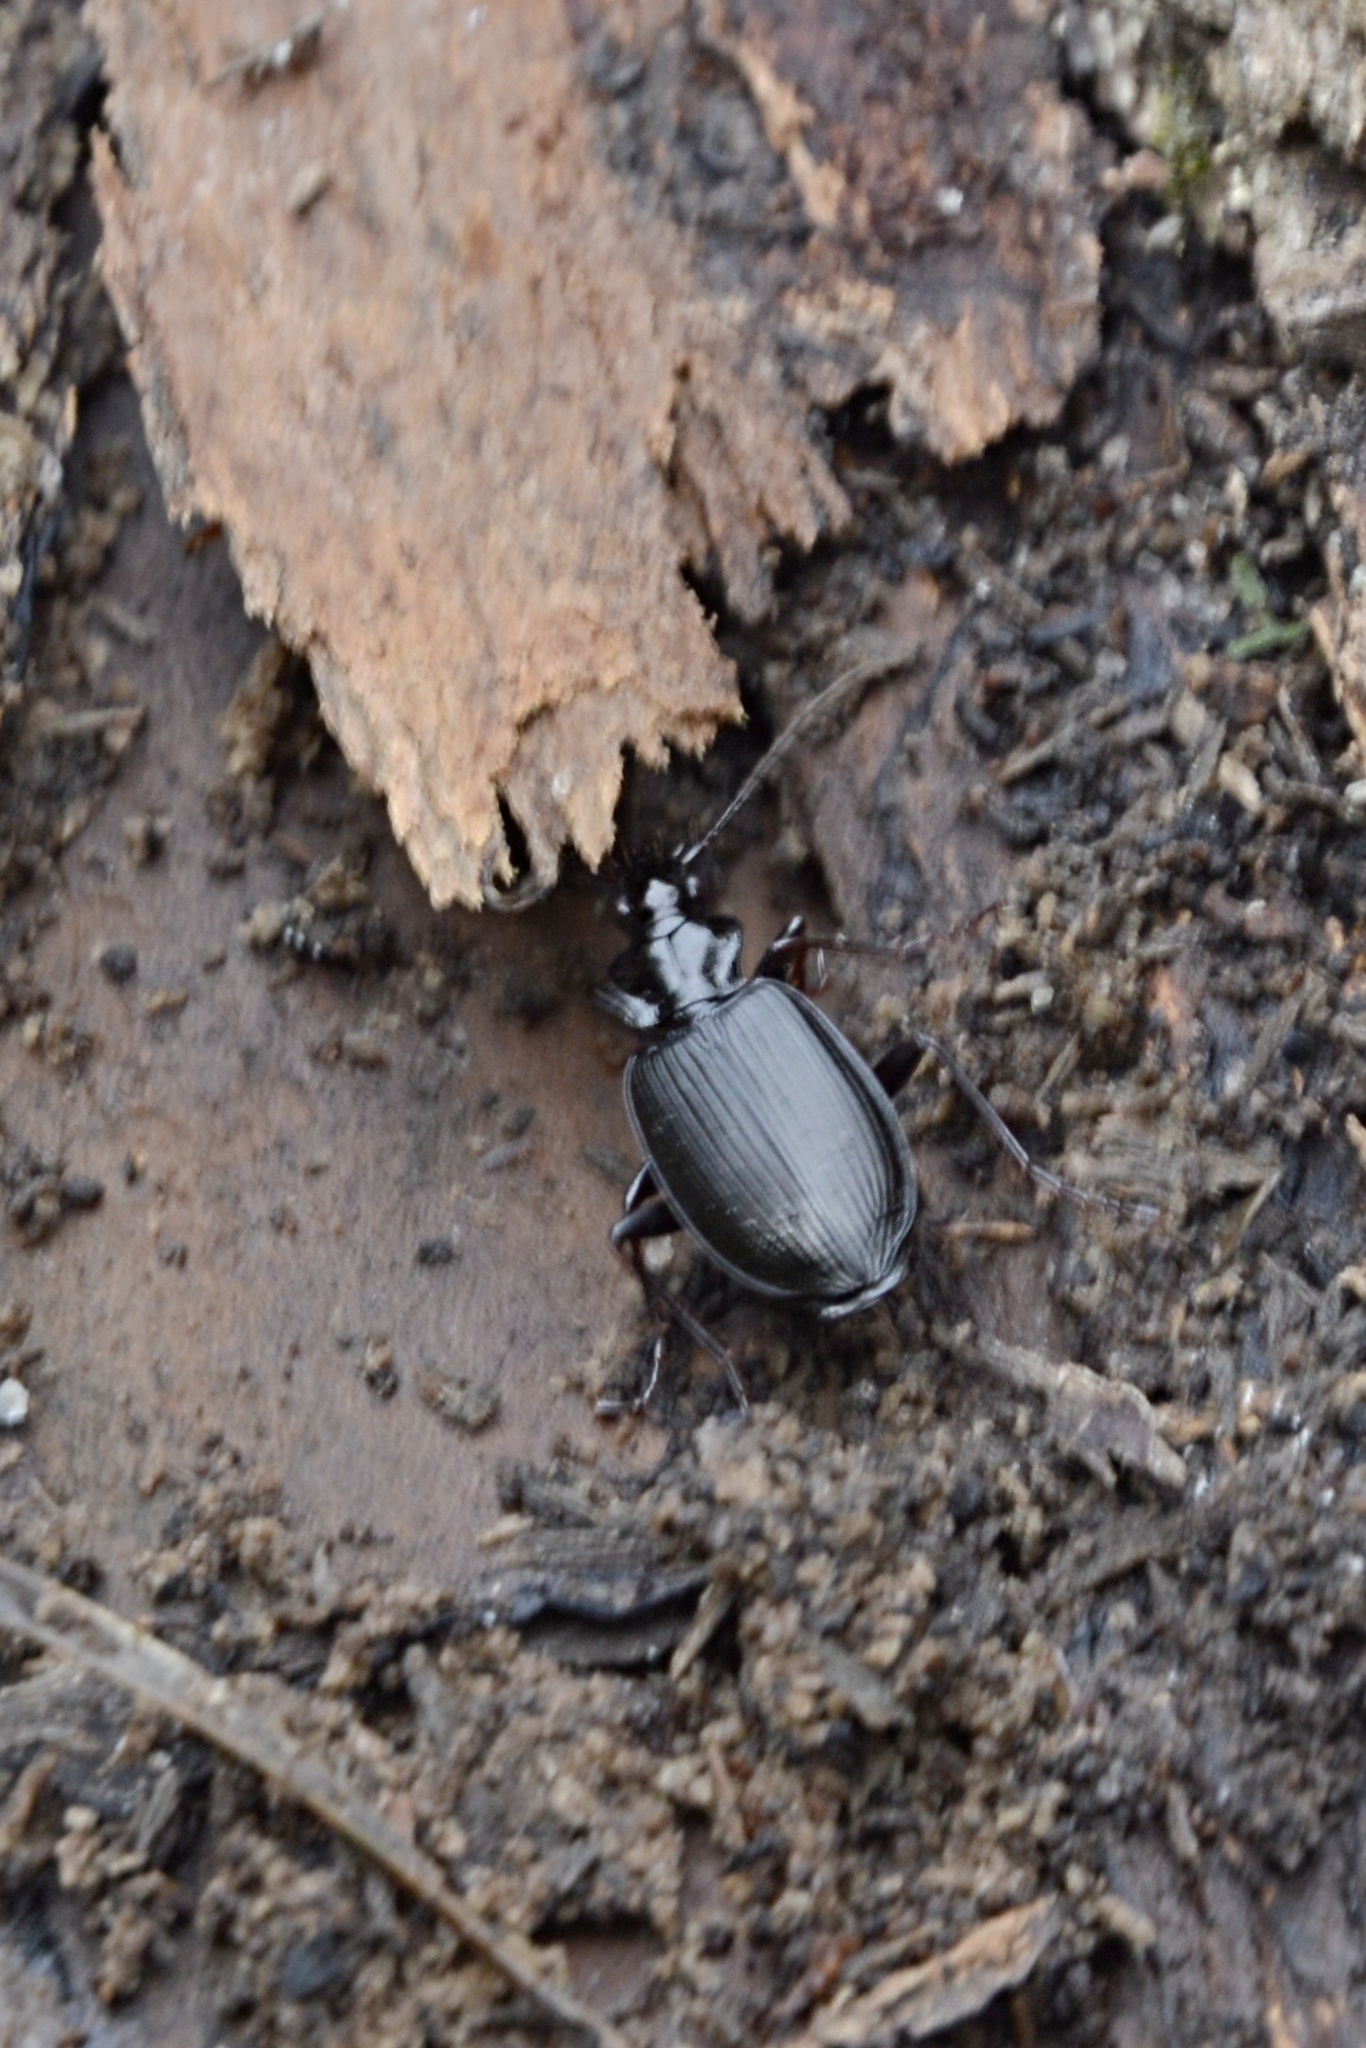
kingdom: Animalia
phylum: Arthropoda
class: Insecta
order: Coleoptera
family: Carabidae
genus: Platynus
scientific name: Platynus assimilis
